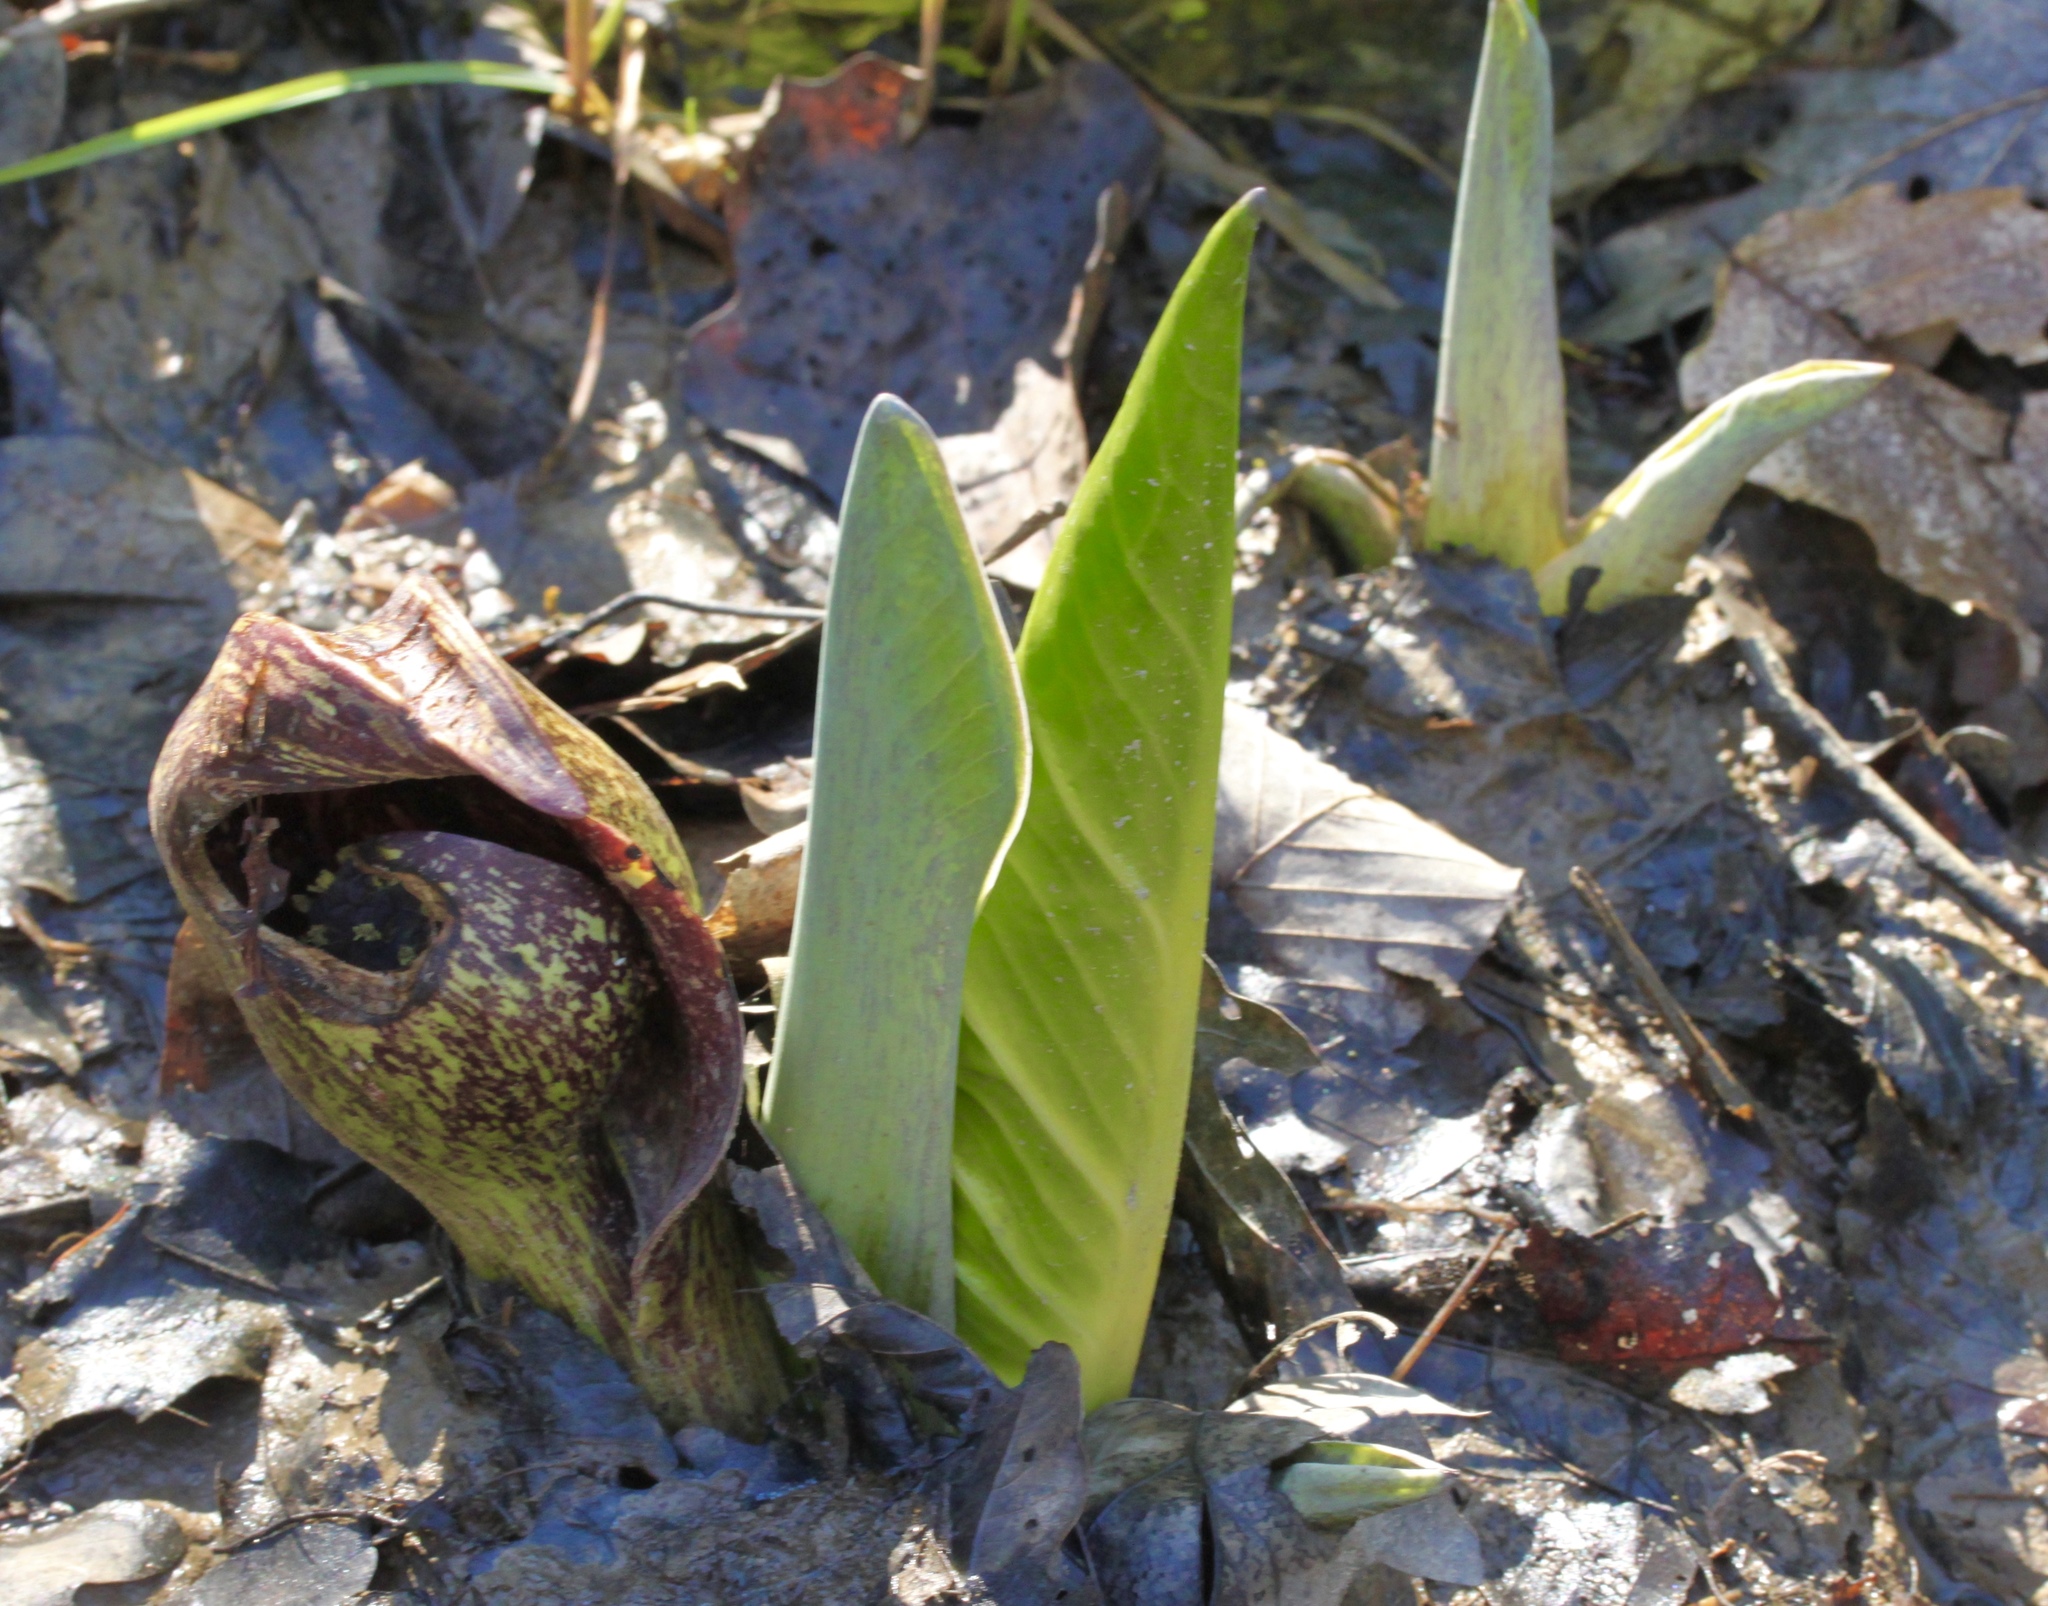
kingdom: Plantae
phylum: Tracheophyta
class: Liliopsida
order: Alismatales
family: Araceae
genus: Symplocarpus
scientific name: Symplocarpus foetidus
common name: Eastern skunk cabbage
